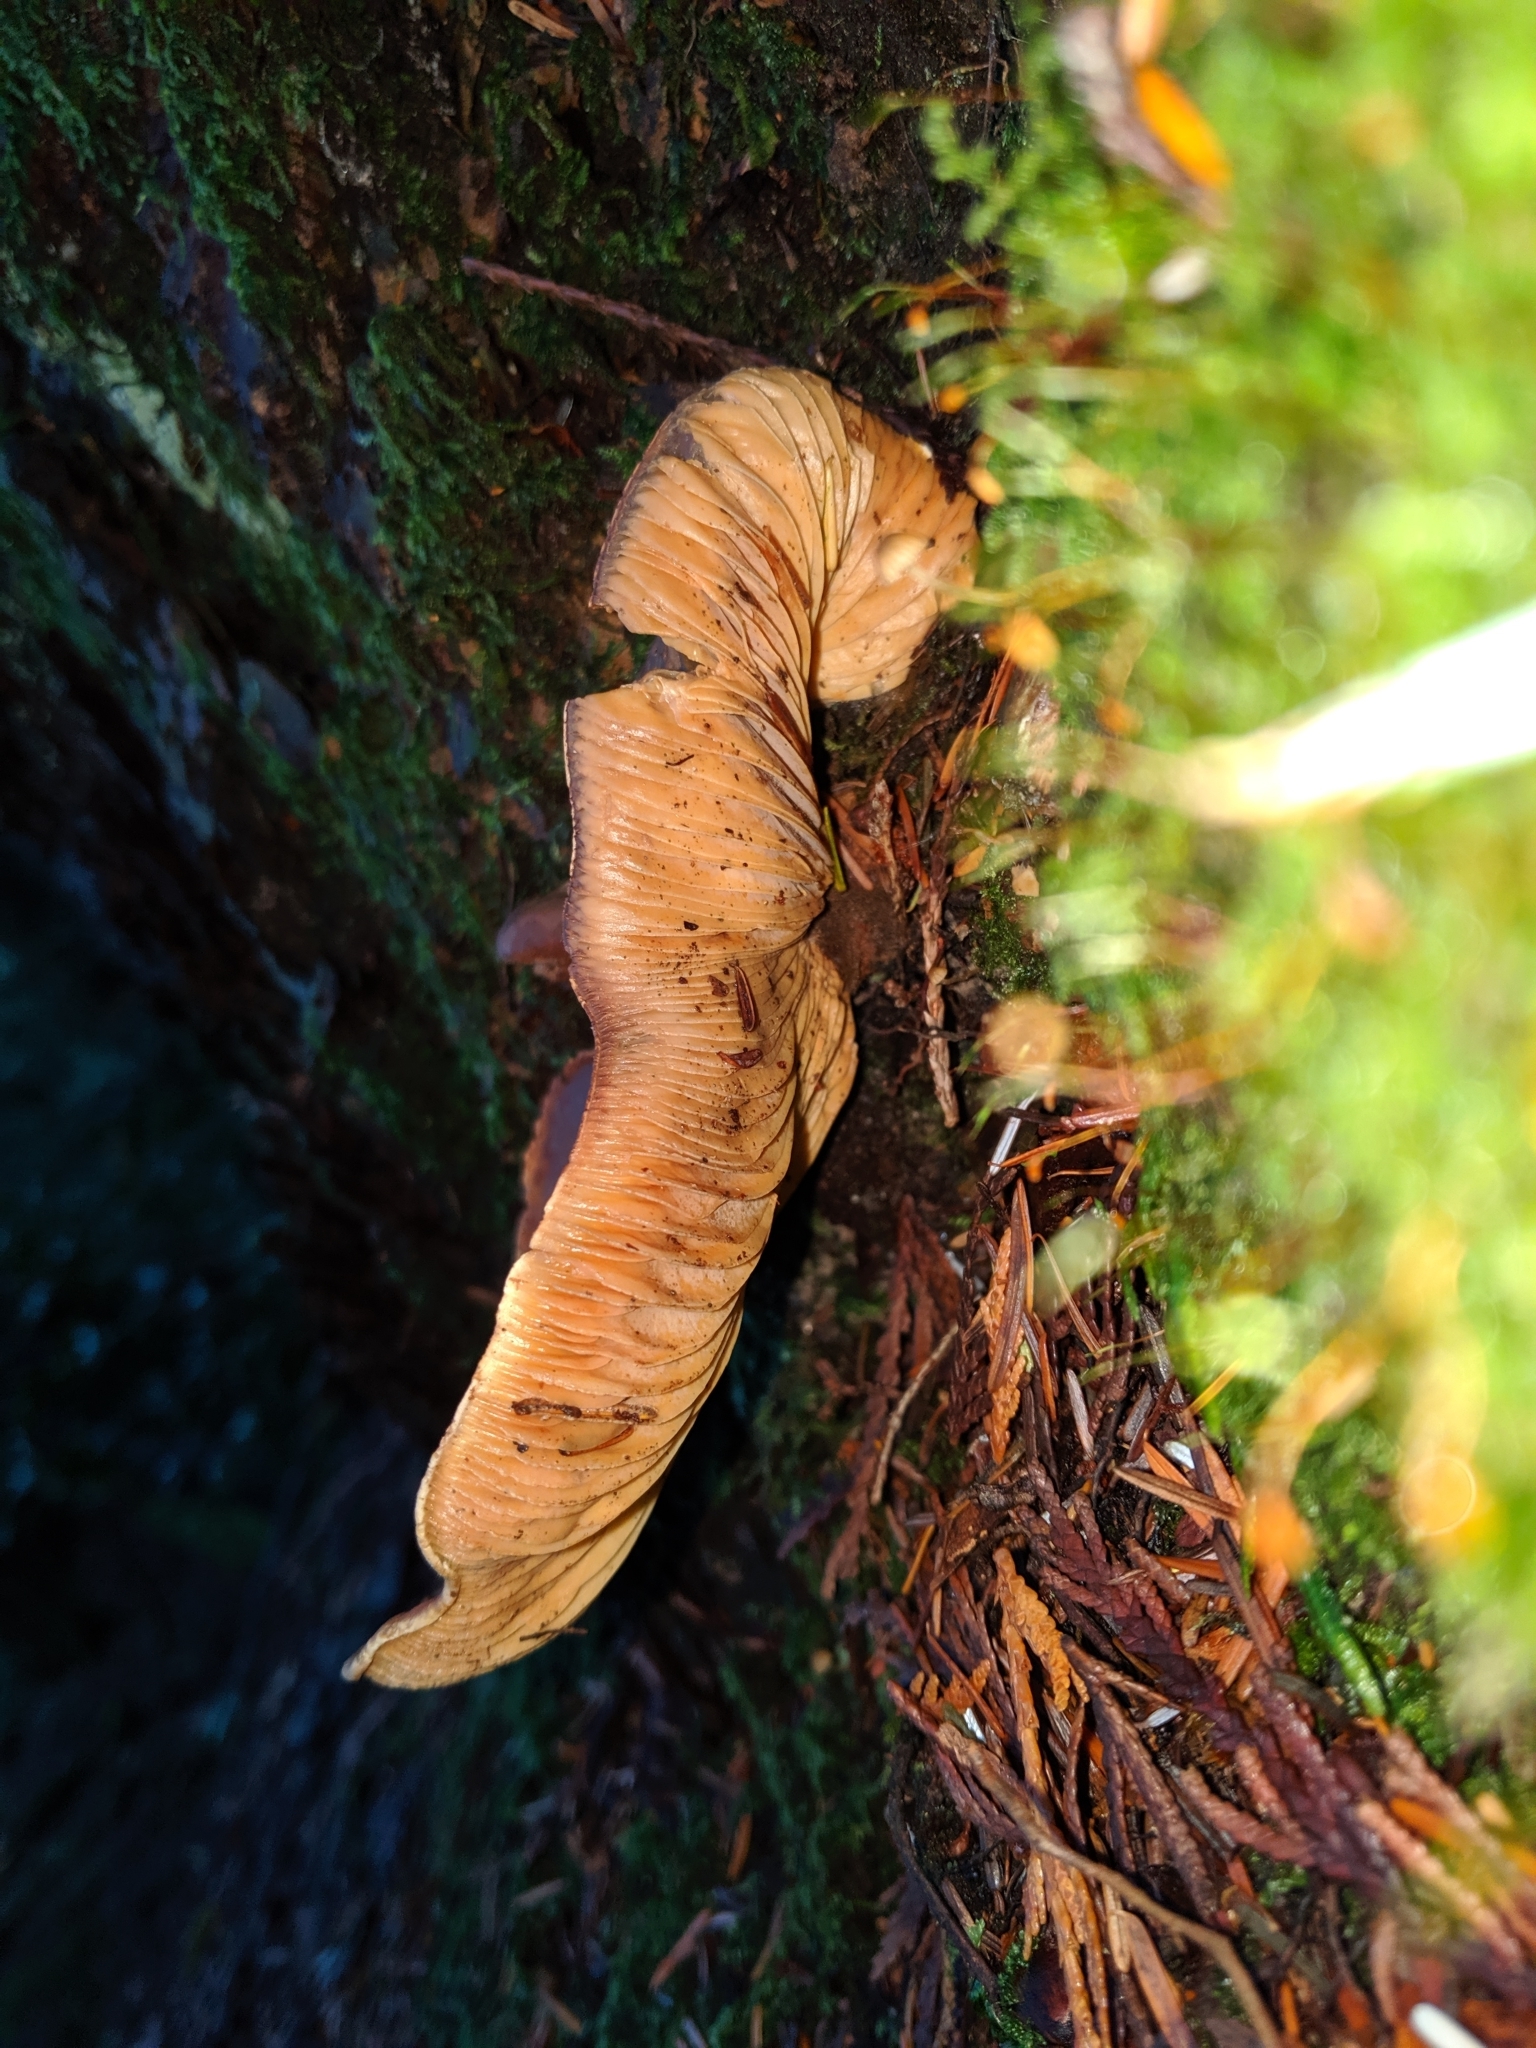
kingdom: Fungi
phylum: Basidiomycota
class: Agaricomycetes
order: Boletales
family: Tapinellaceae
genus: Tapinella
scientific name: Tapinella atrotomentosa
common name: Velvet rollrim
